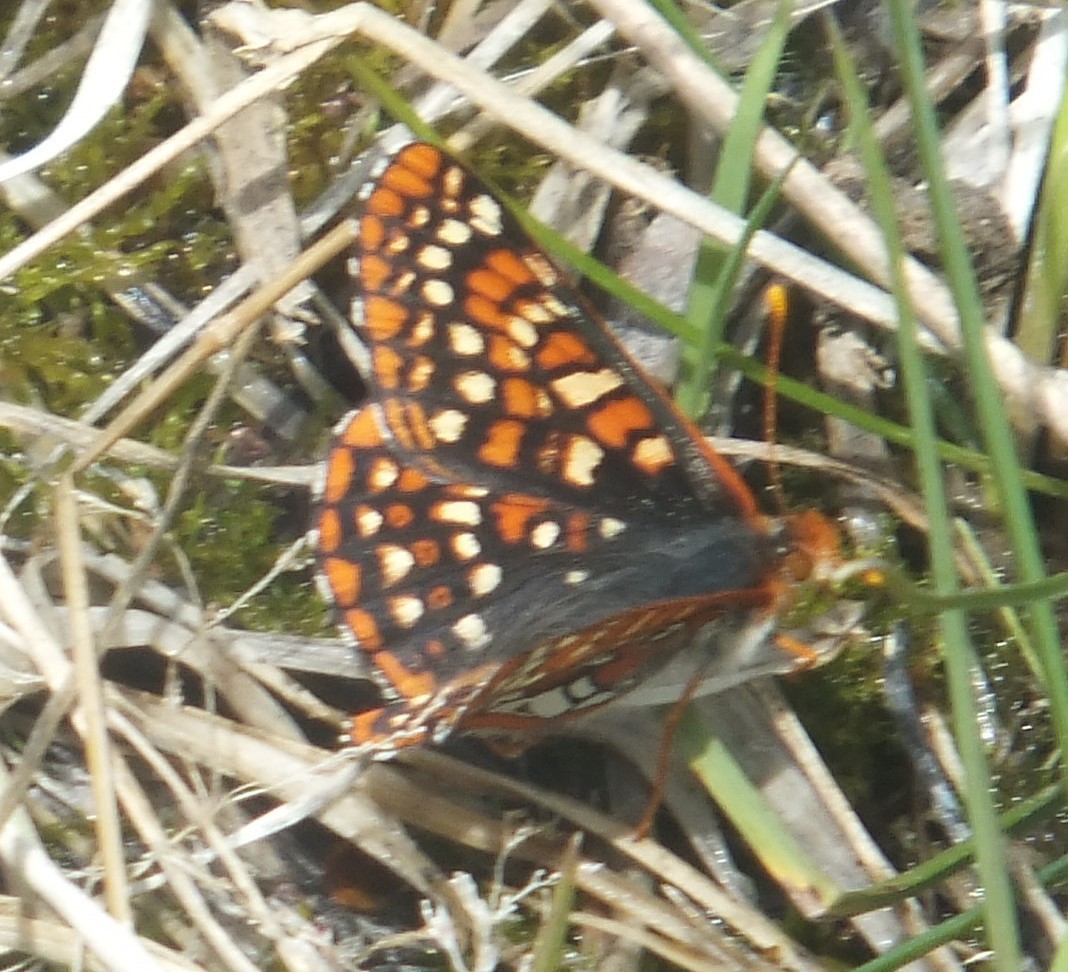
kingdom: Animalia
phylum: Arthropoda
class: Insecta
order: Lepidoptera
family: Nymphalidae
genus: Occidryas
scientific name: Occidryas anicia
